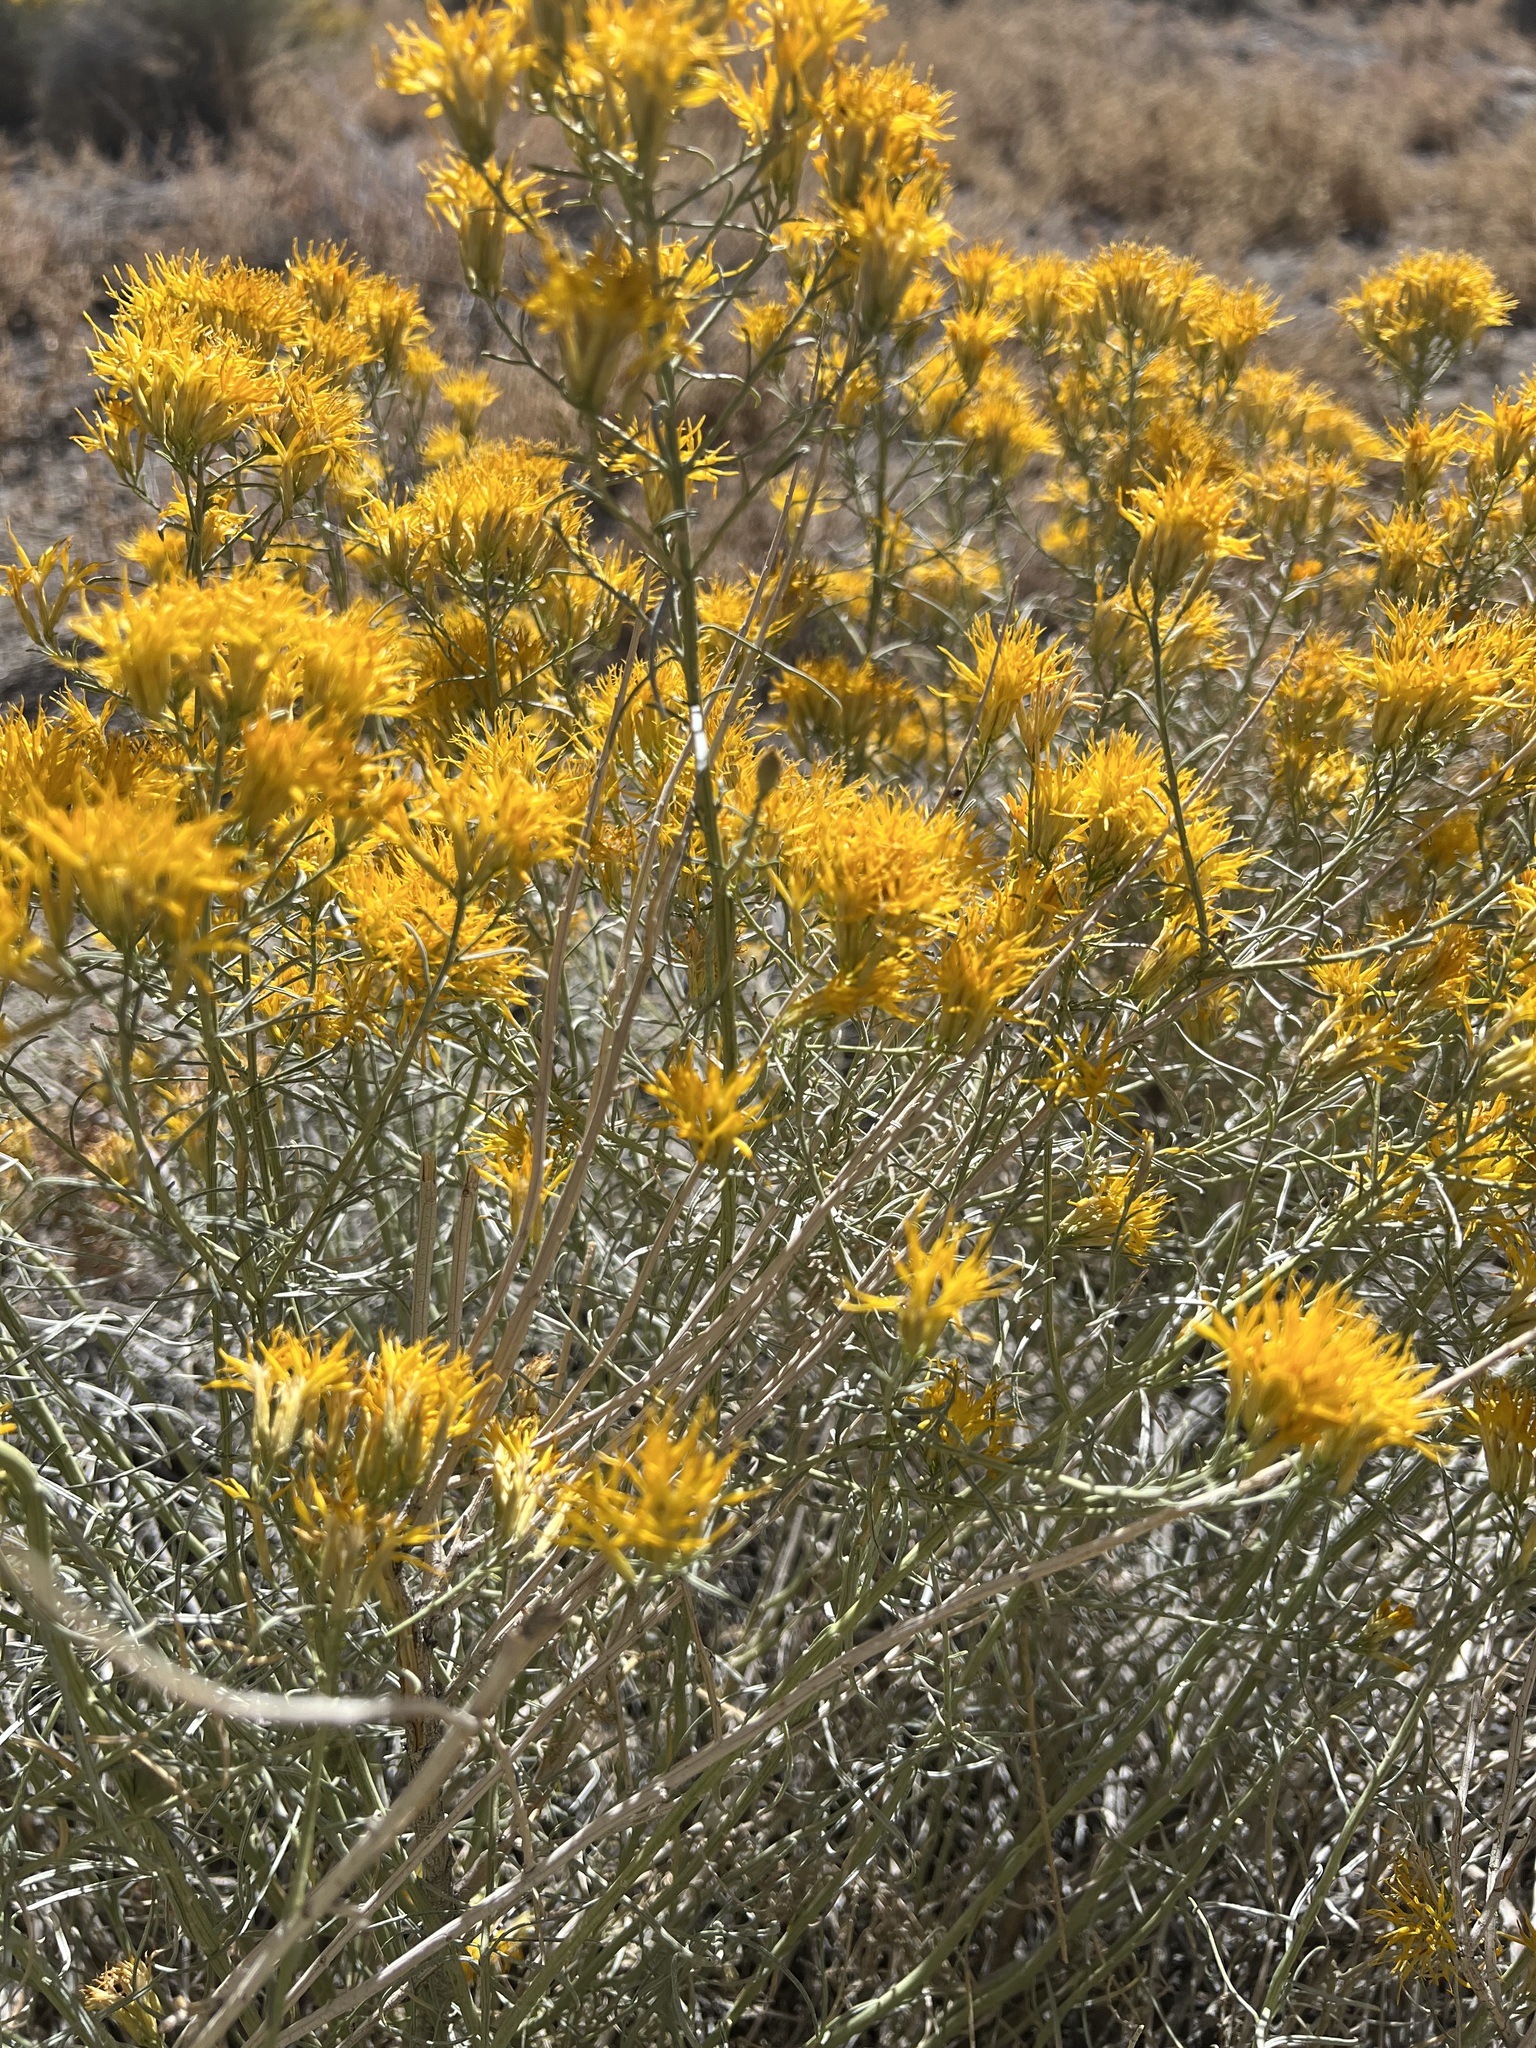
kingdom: Plantae
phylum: Tracheophyta
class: Magnoliopsida
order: Asterales
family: Asteraceae
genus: Ericameria
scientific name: Ericameria nauseosa
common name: Rubber rabbitbrush
